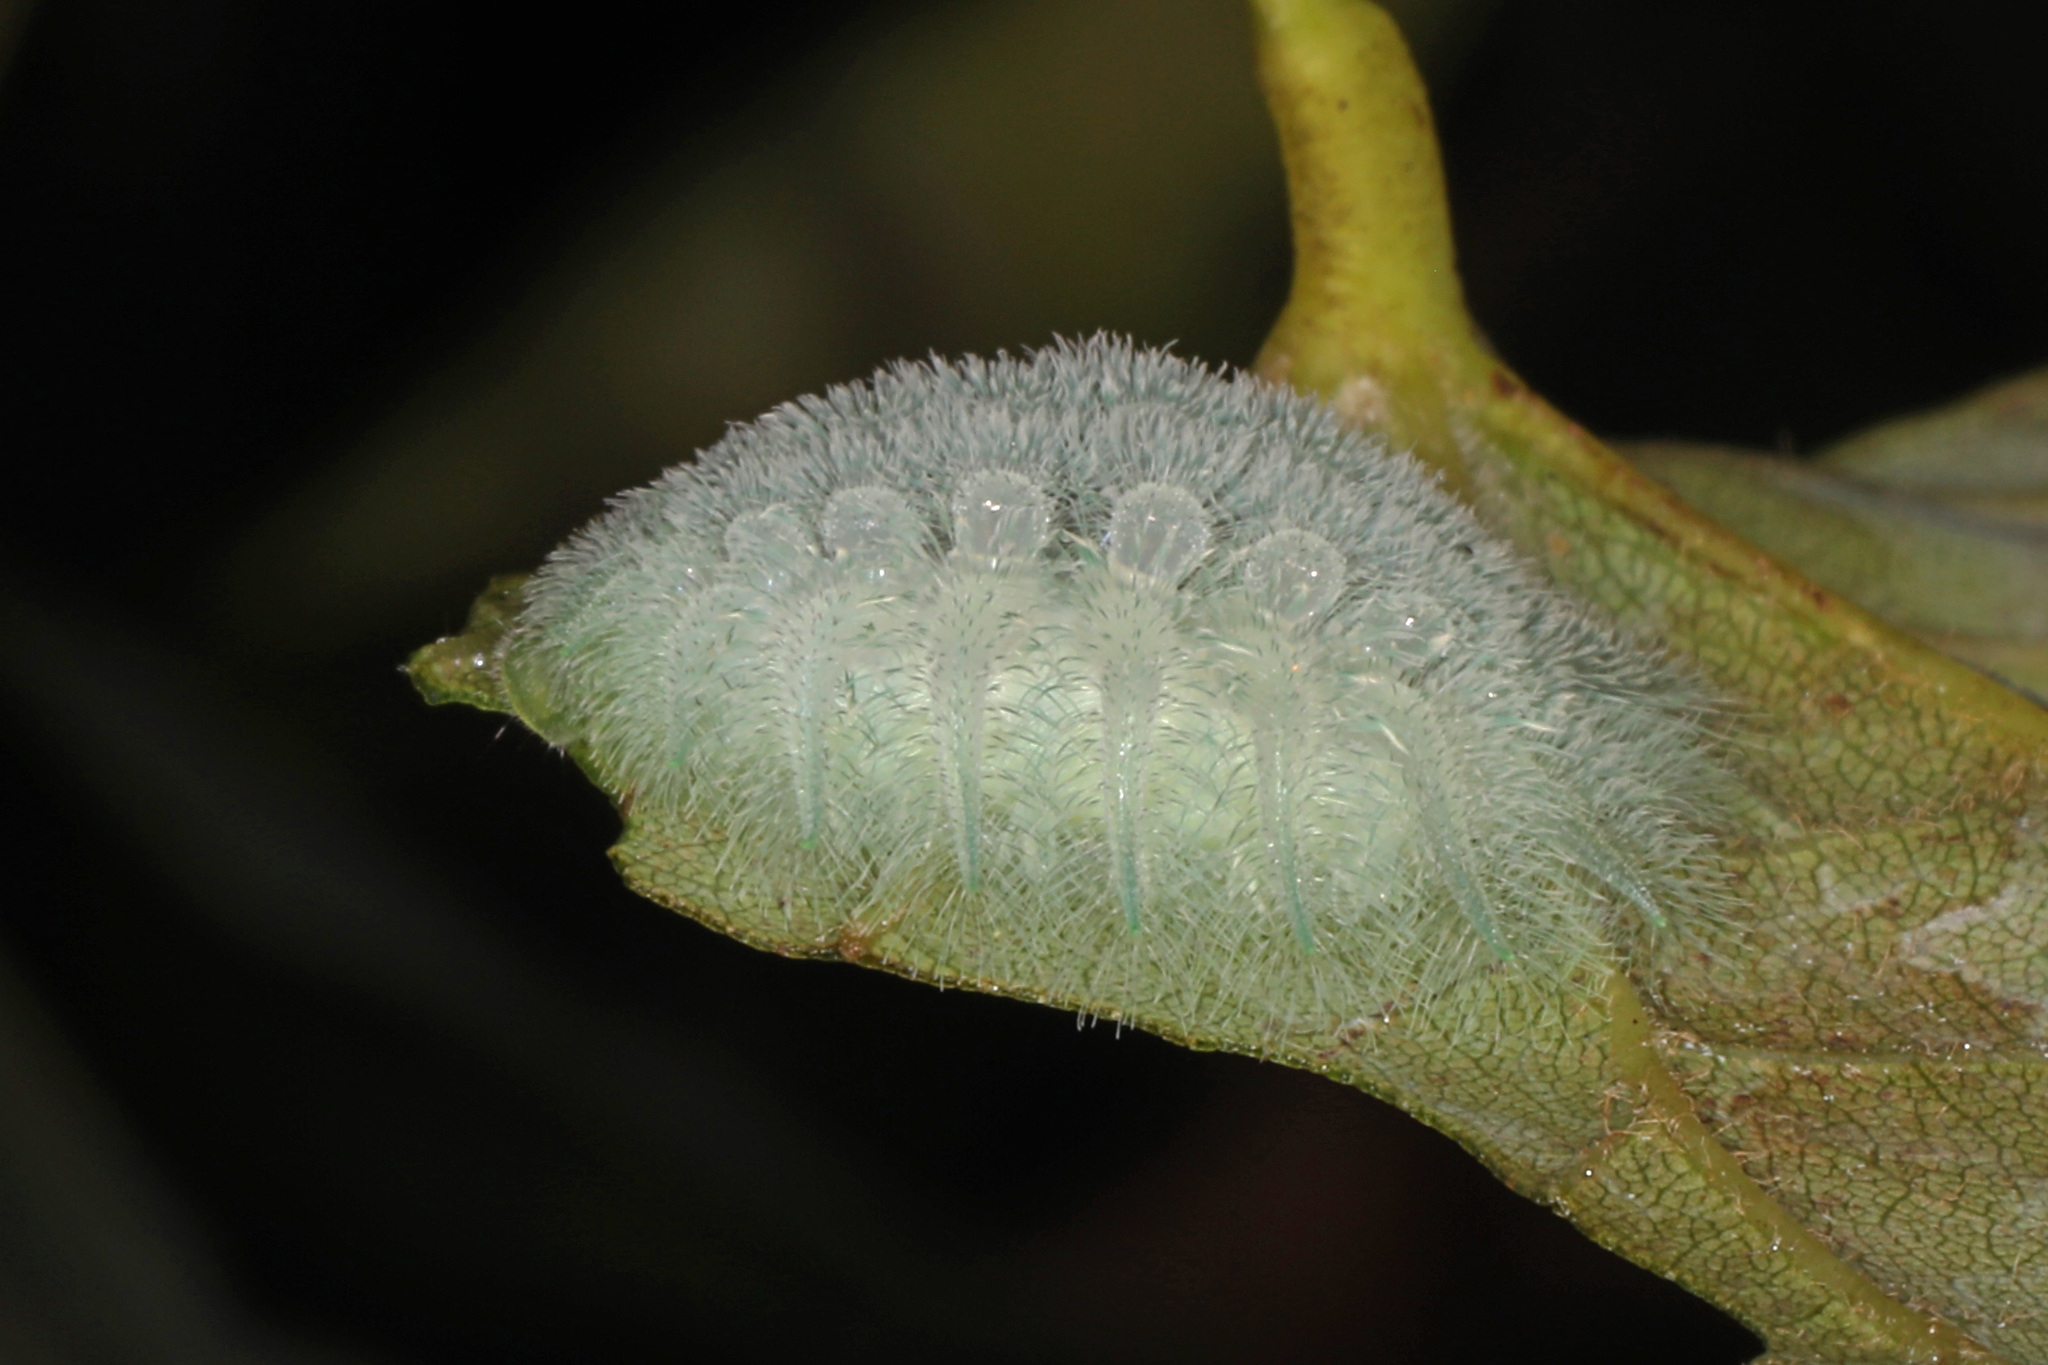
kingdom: Animalia
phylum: Arthropoda
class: Insecta
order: Lepidoptera
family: Limacodidae
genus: Isochaetes
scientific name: Isochaetes beutenmuelleri
